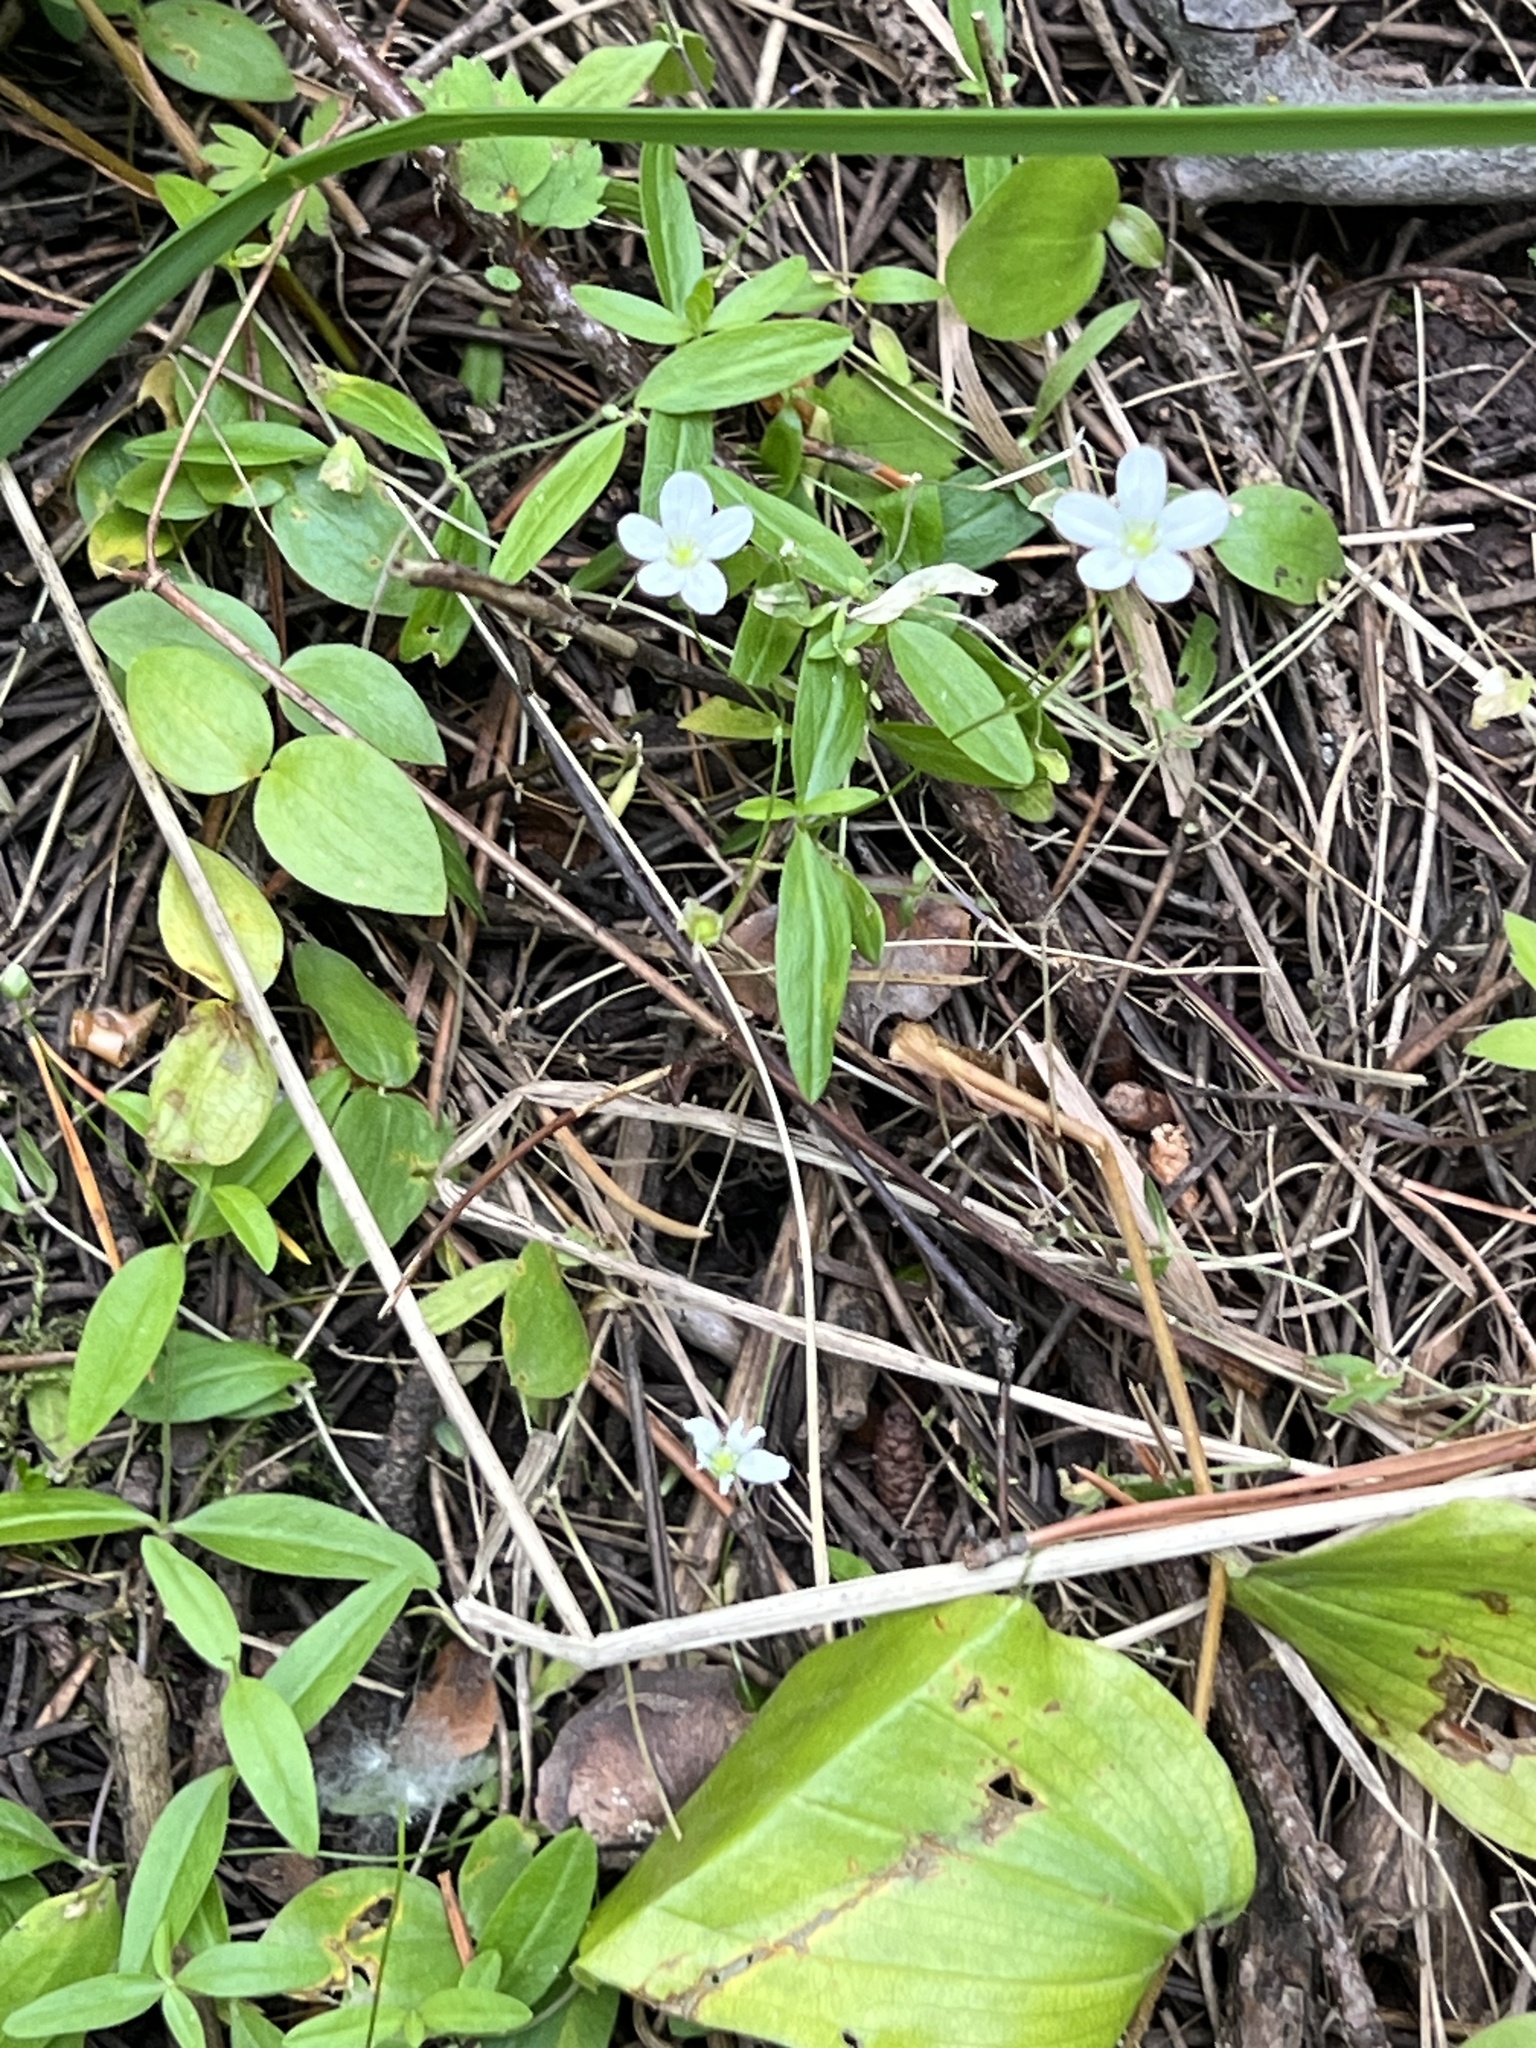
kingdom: Plantae
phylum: Tracheophyta
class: Magnoliopsida
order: Caryophyllales
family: Caryophyllaceae
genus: Moehringia
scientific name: Moehringia lateriflora
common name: Blunt-leaved sandwort
